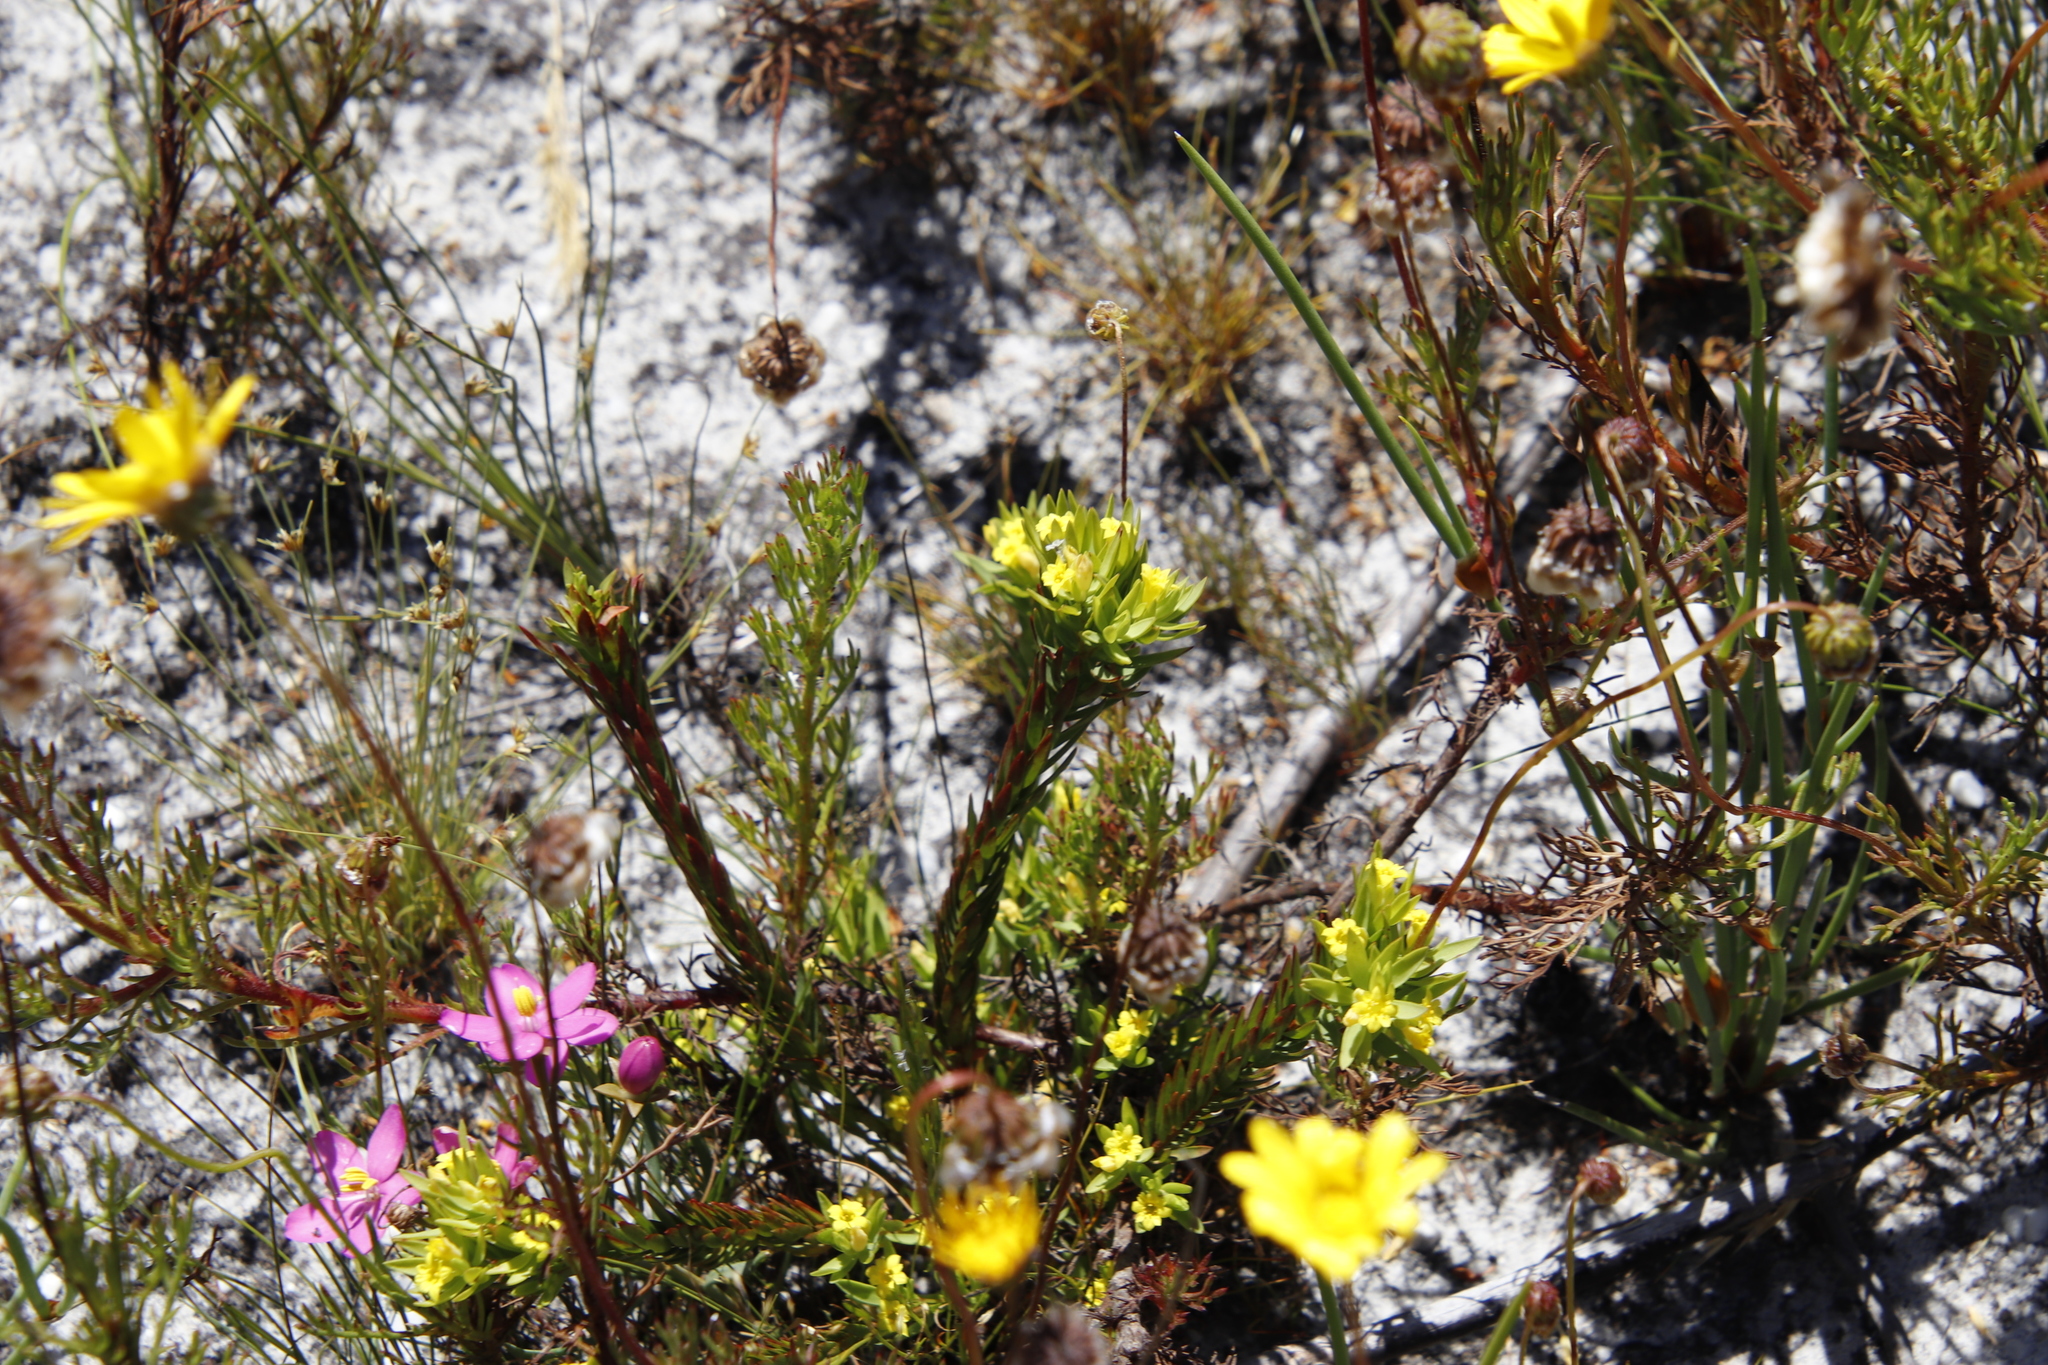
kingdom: Plantae
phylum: Tracheophyta
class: Magnoliopsida
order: Malvales
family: Thymelaeaceae
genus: Gnidia
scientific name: Gnidia juniperifolia
